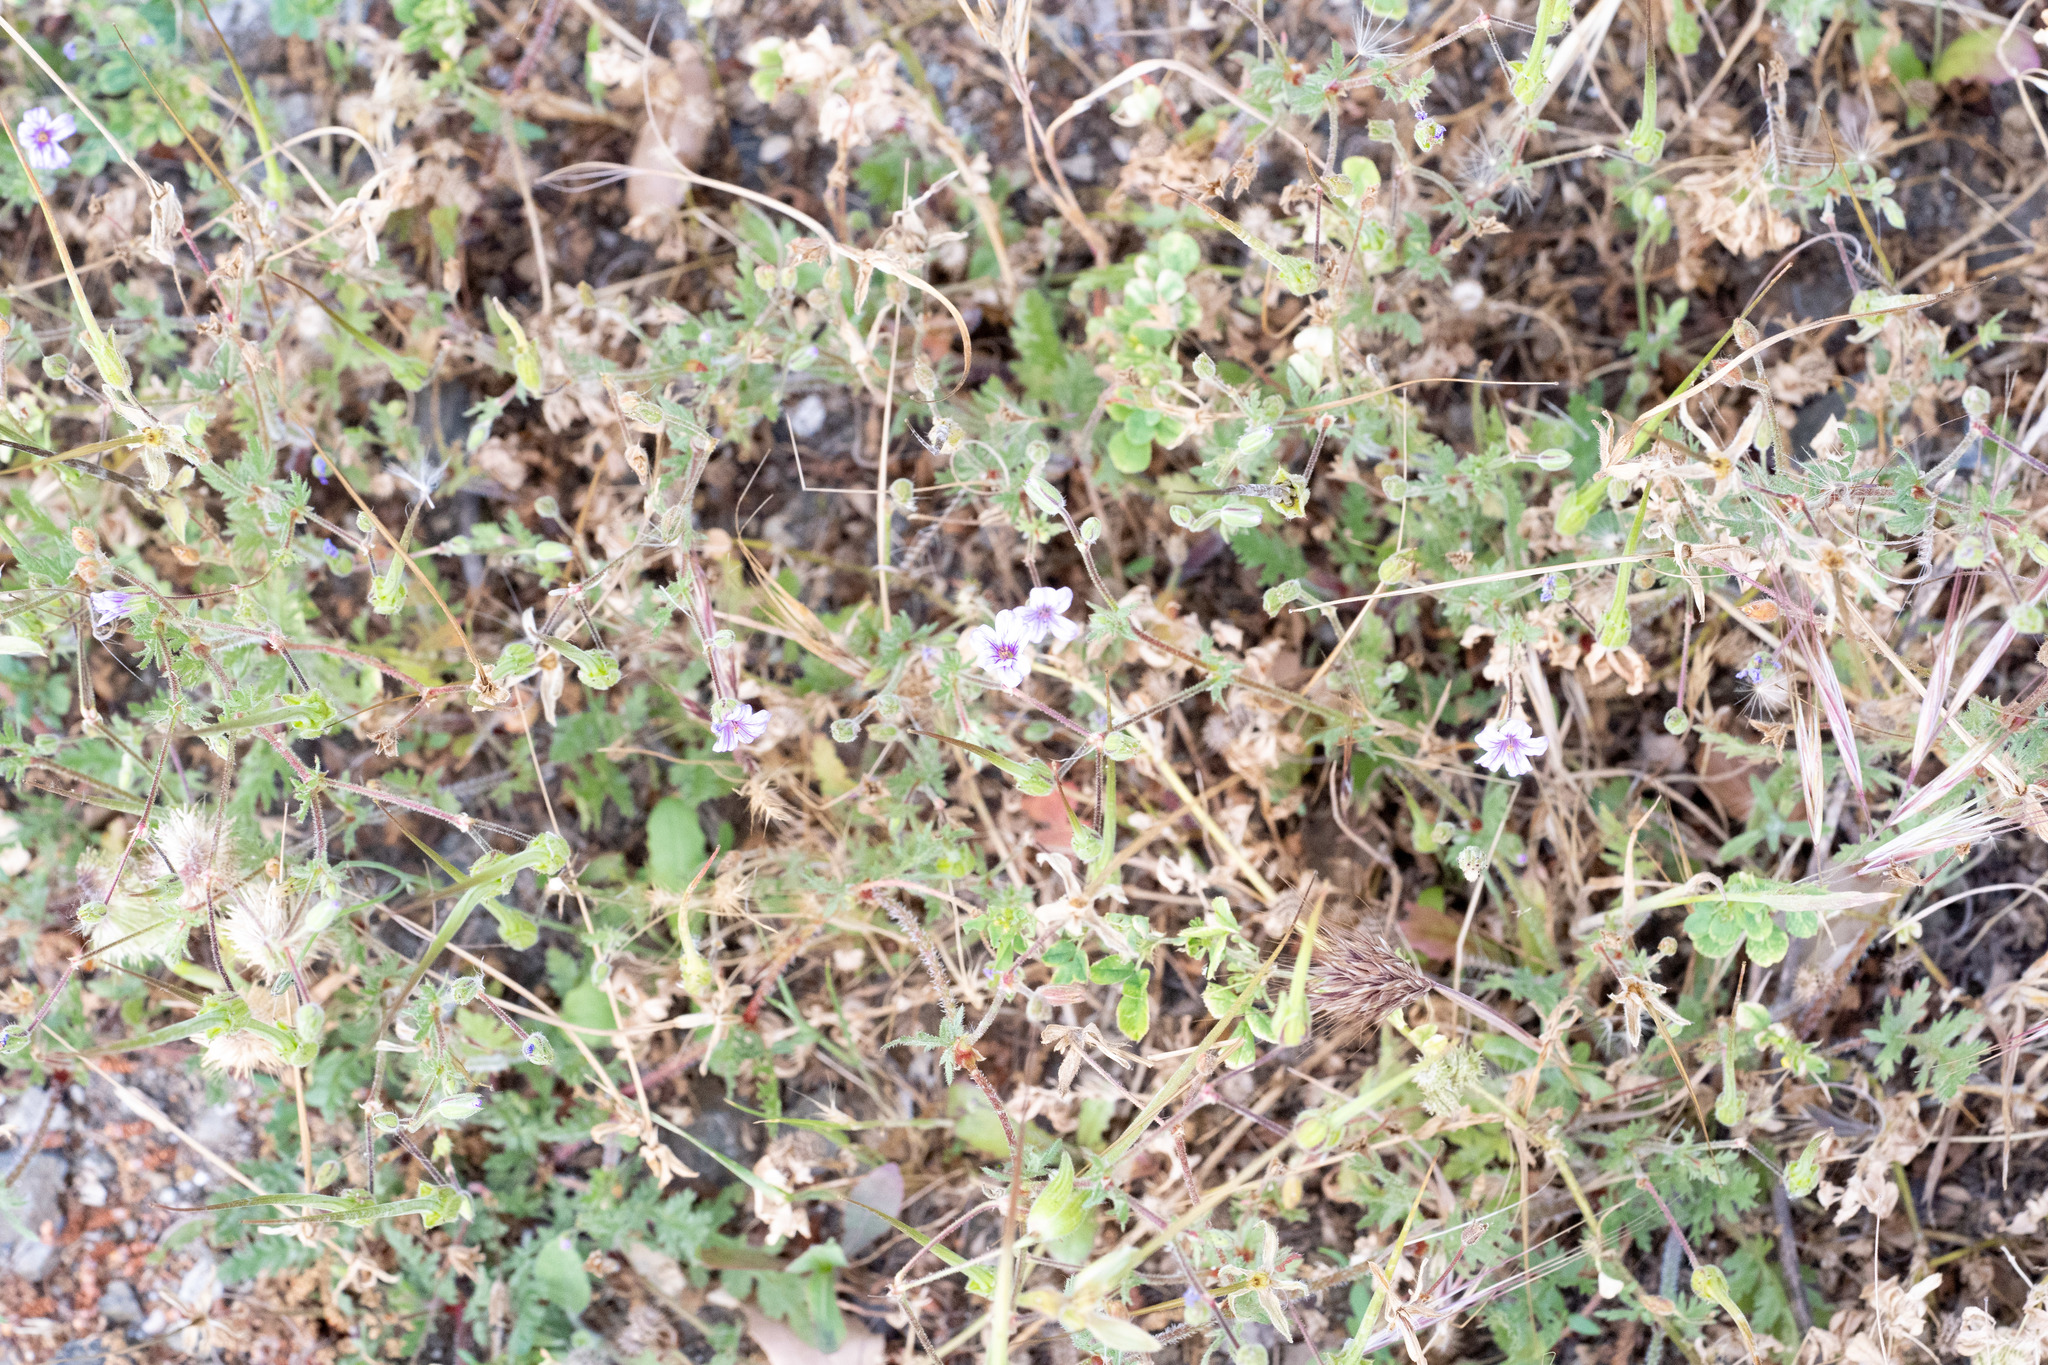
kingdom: Plantae
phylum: Tracheophyta
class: Magnoliopsida
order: Geraniales
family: Geraniaceae
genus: Erodium
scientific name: Erodium botrys
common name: Mediterranean stork's-bill
